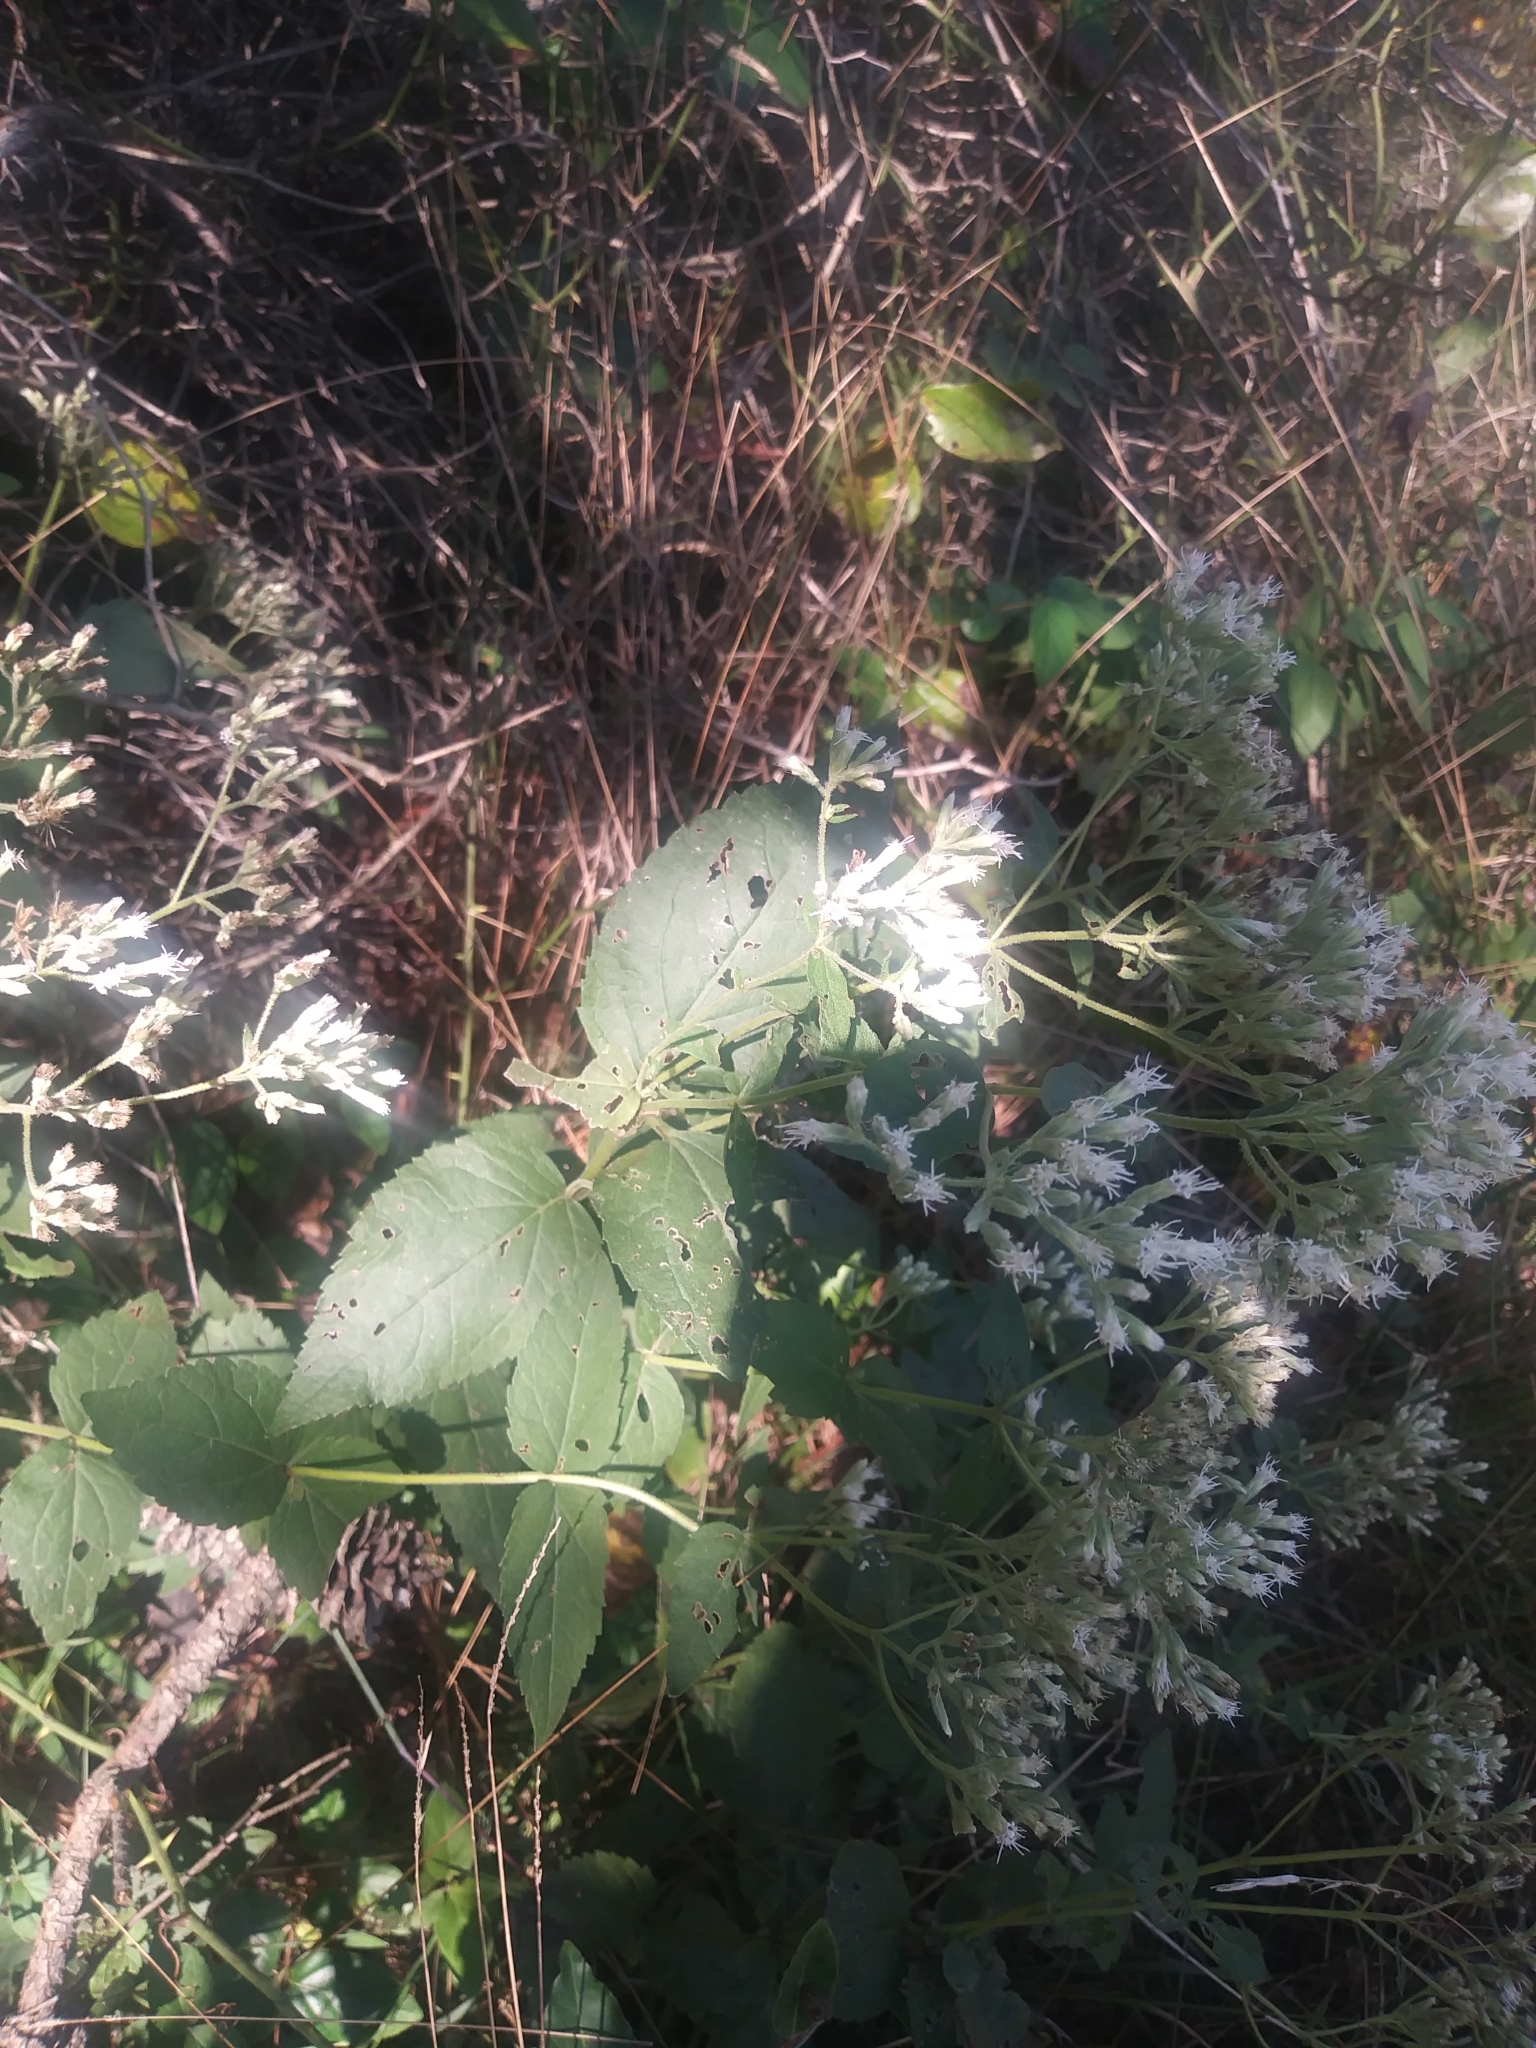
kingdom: Plantae
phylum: Tracheophyta
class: Magnoliopsida
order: Asterales
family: Asteraceae
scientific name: Asteraceae
